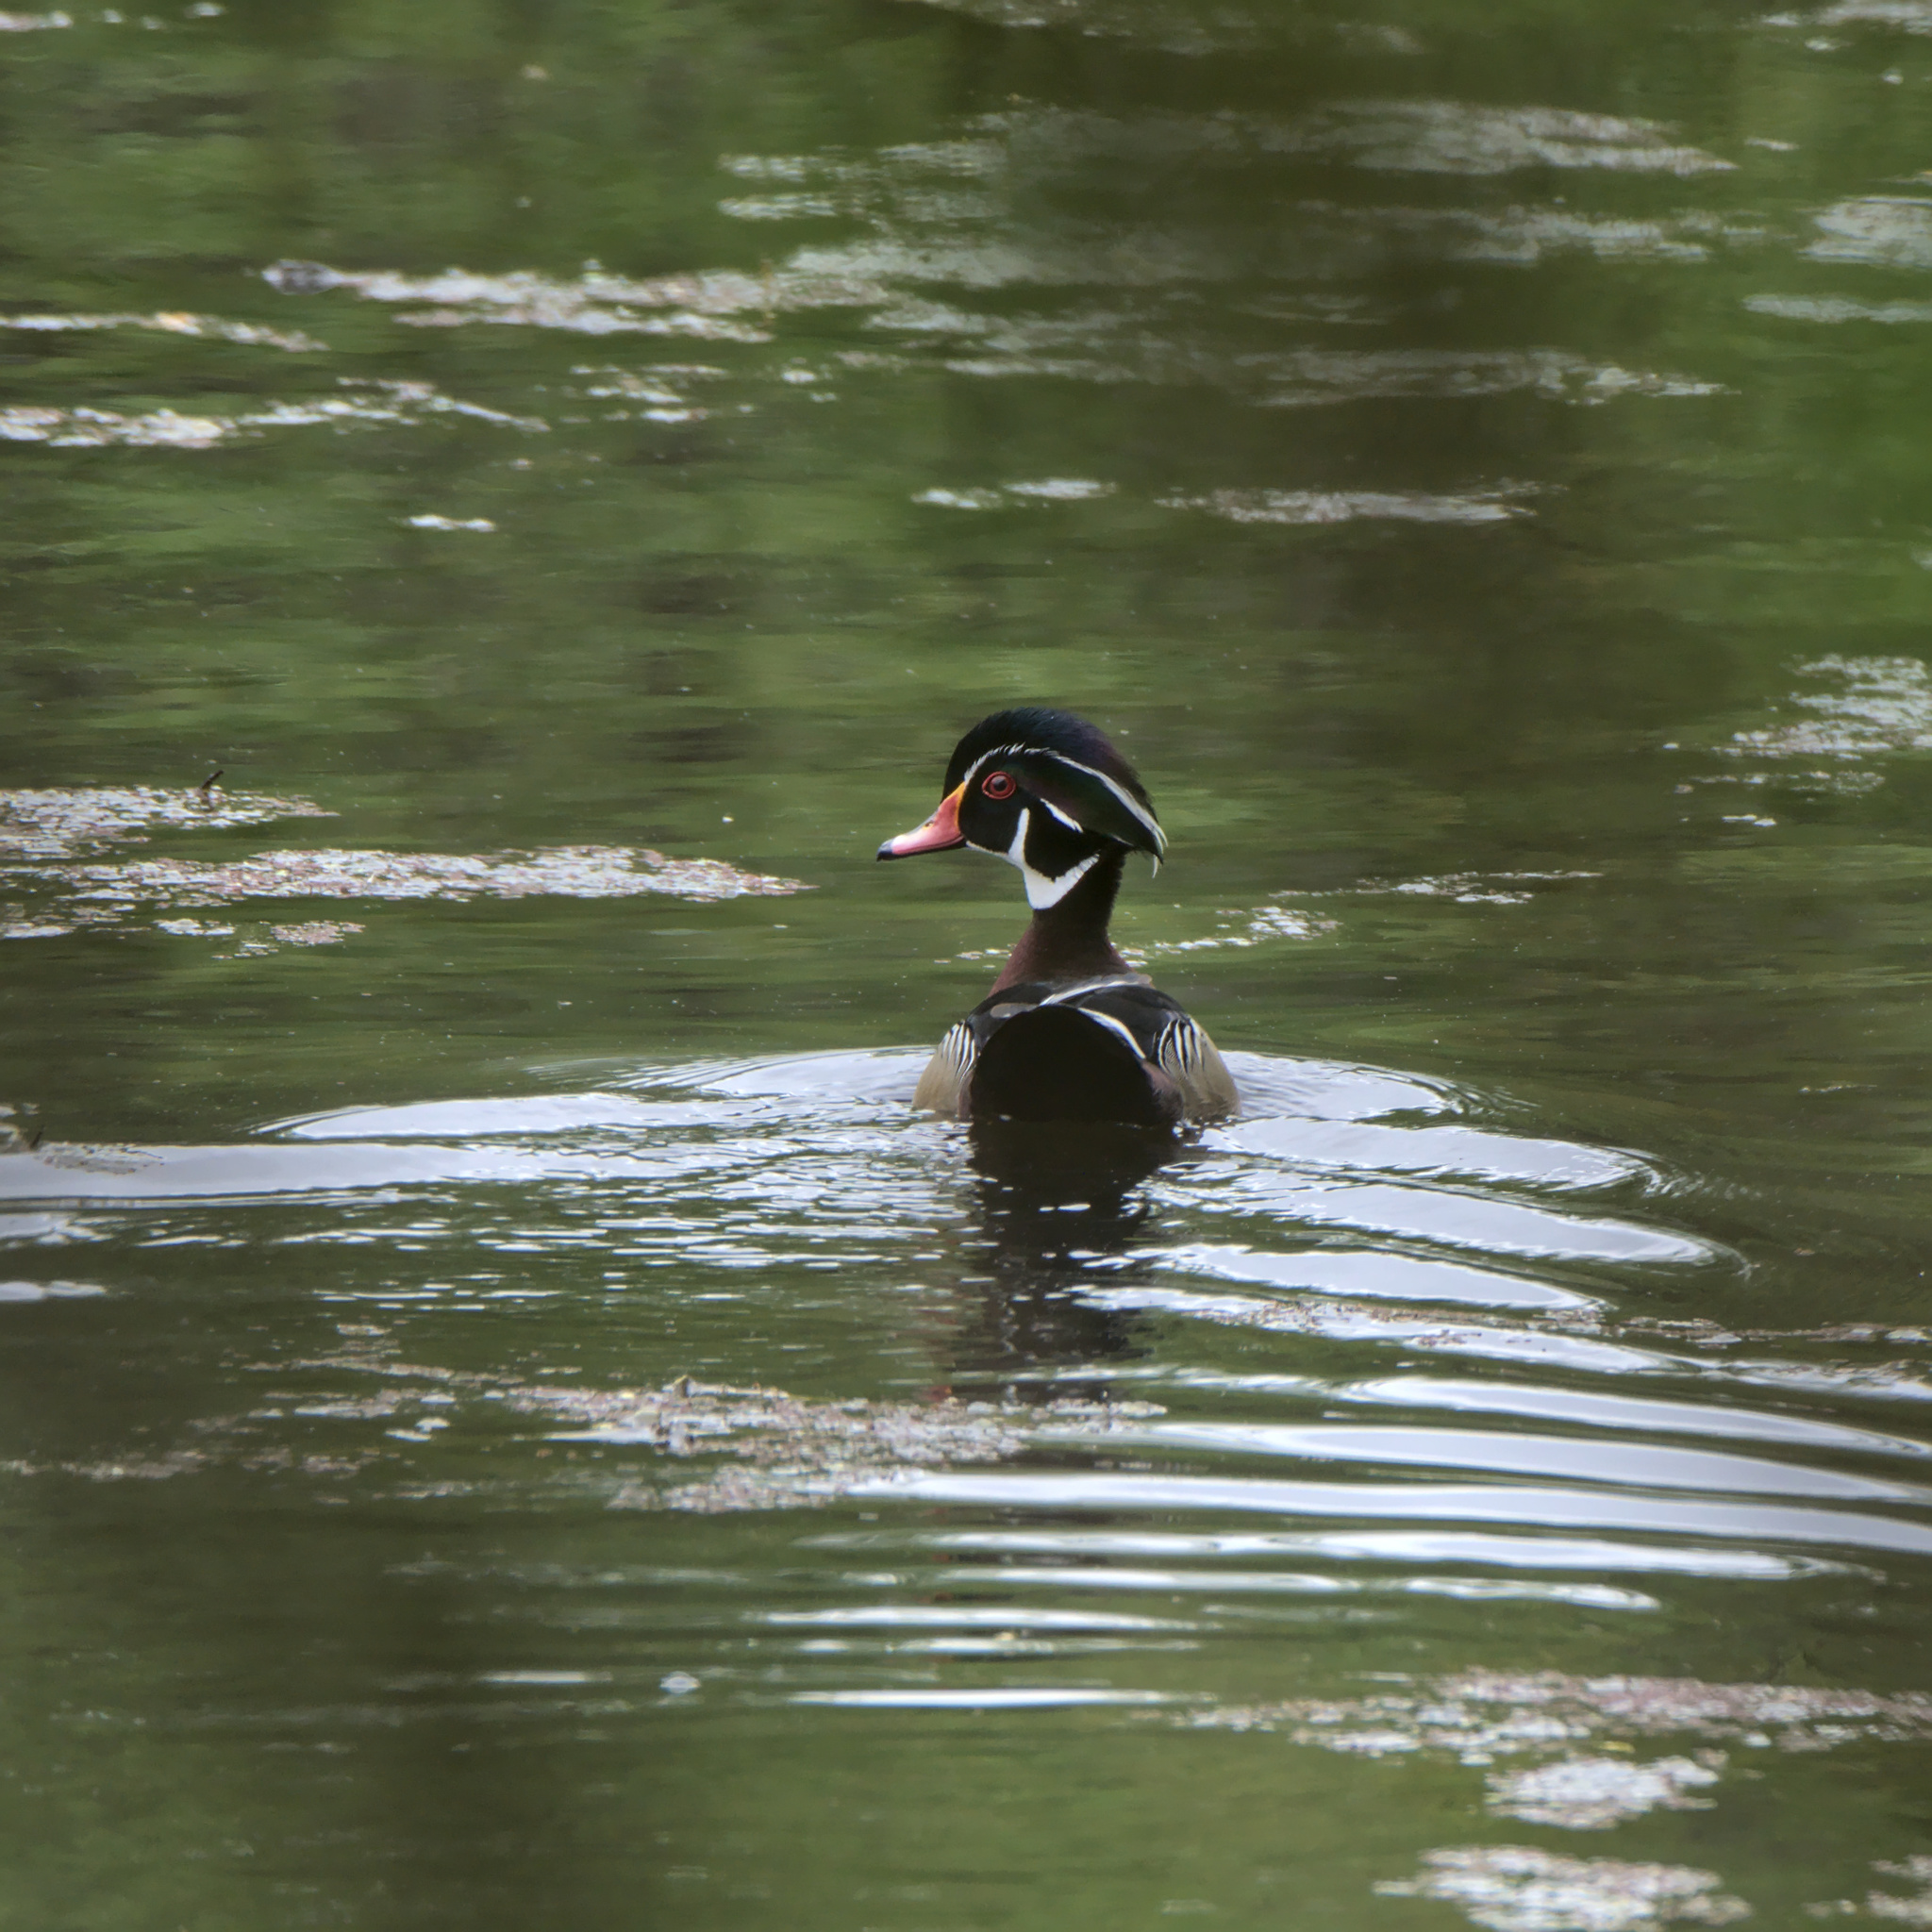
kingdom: Animalia
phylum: Chordata
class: Aves
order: Anseriformes
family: Anatidae
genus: Aix
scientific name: Aix sponsa
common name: Wood duck
